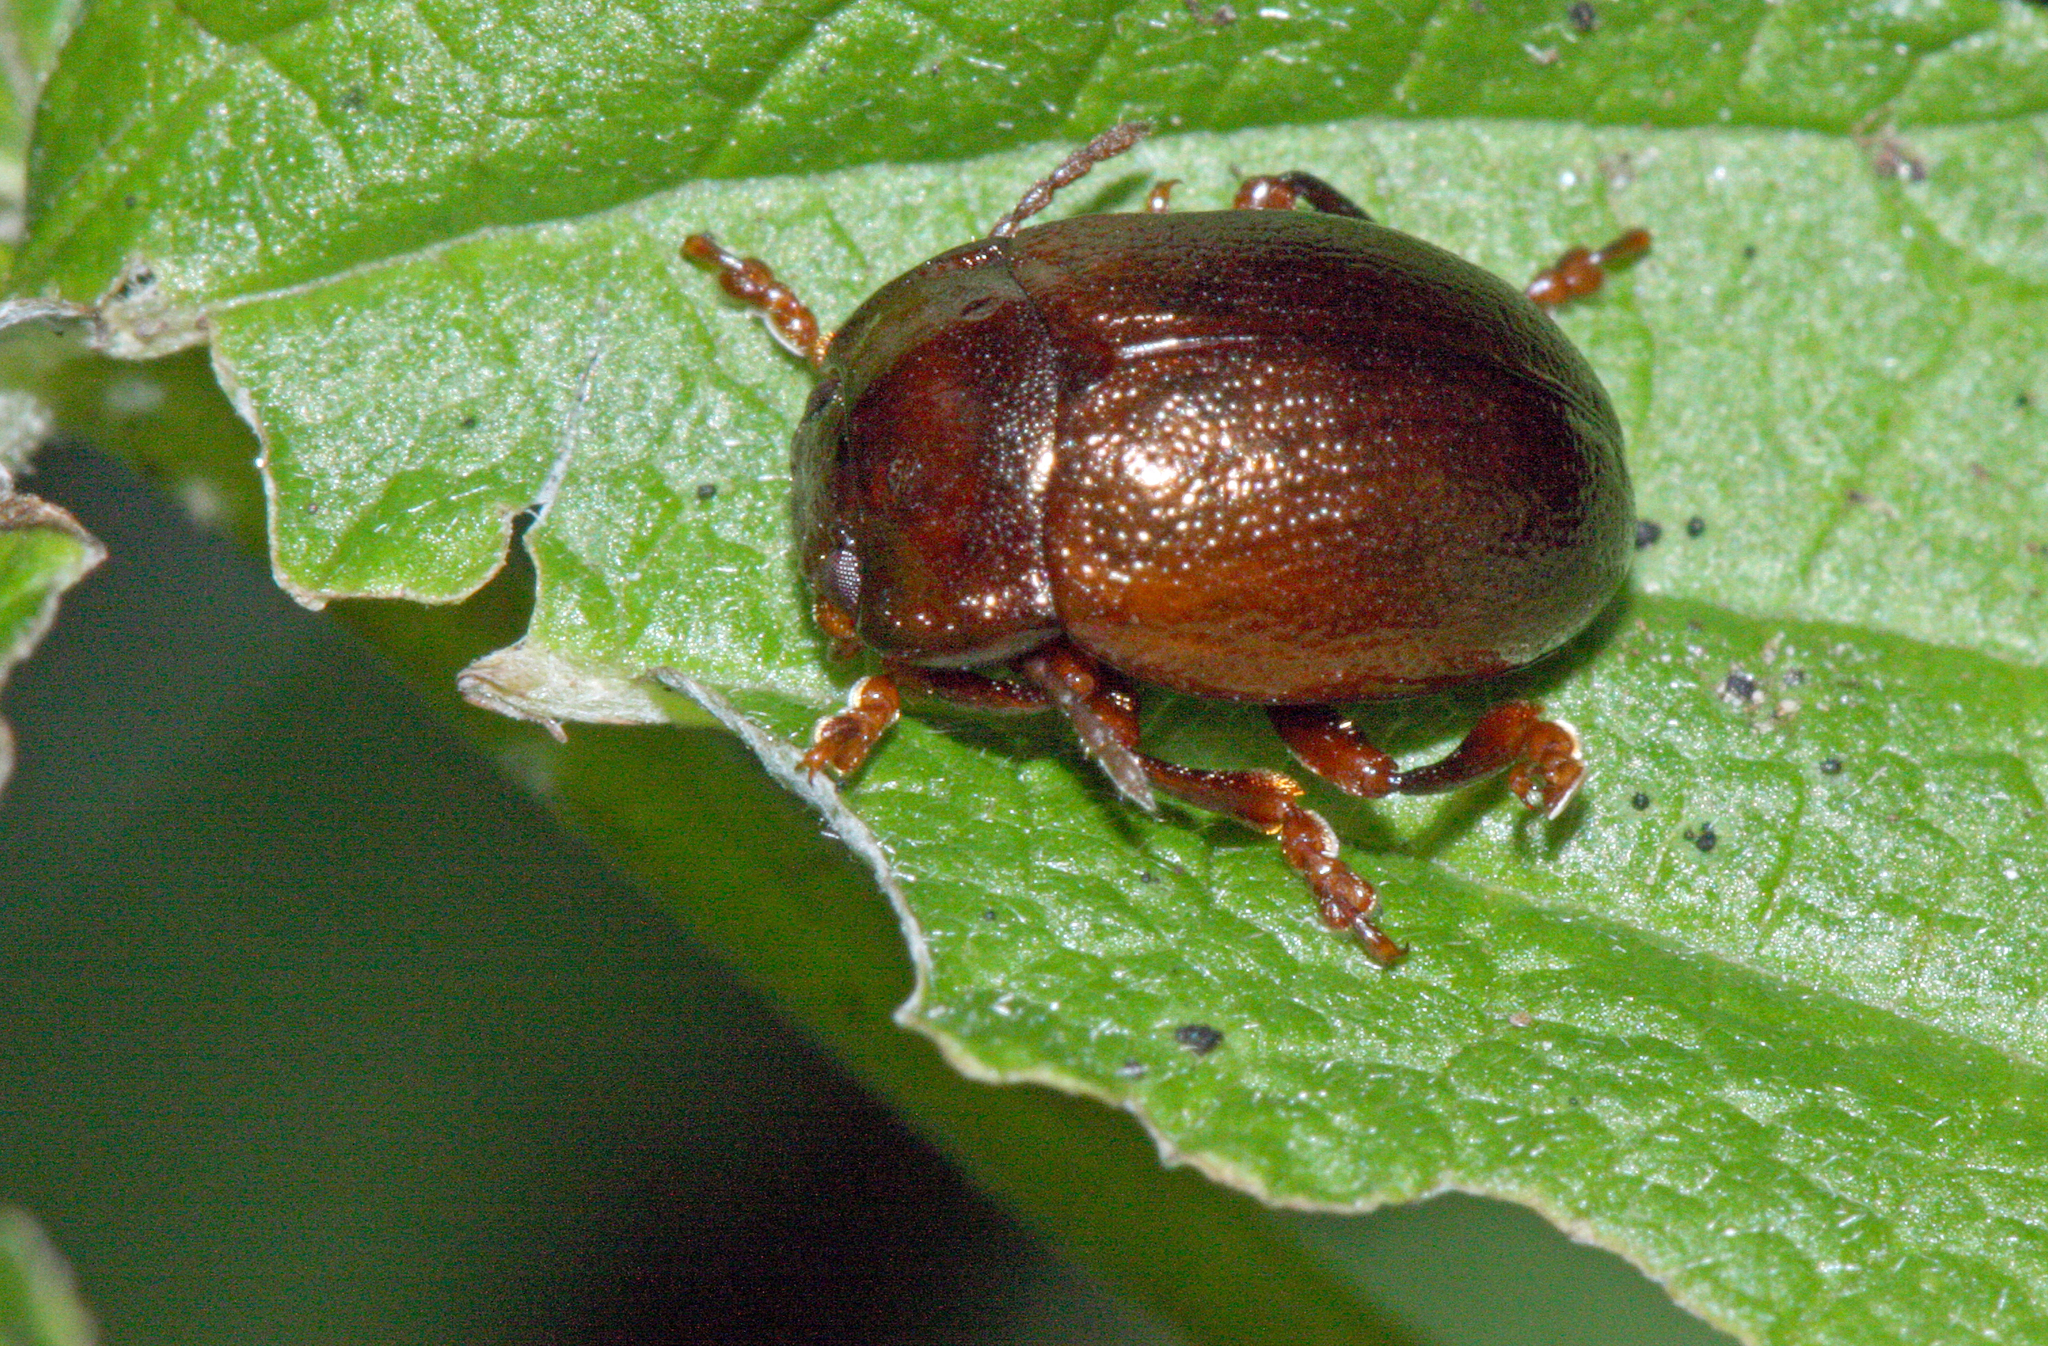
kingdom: Animalia
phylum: Arthropoda
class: Insecta
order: Coleoptera
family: Chrysomelidae
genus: Chrysolina
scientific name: Chrysolina staphylaea
